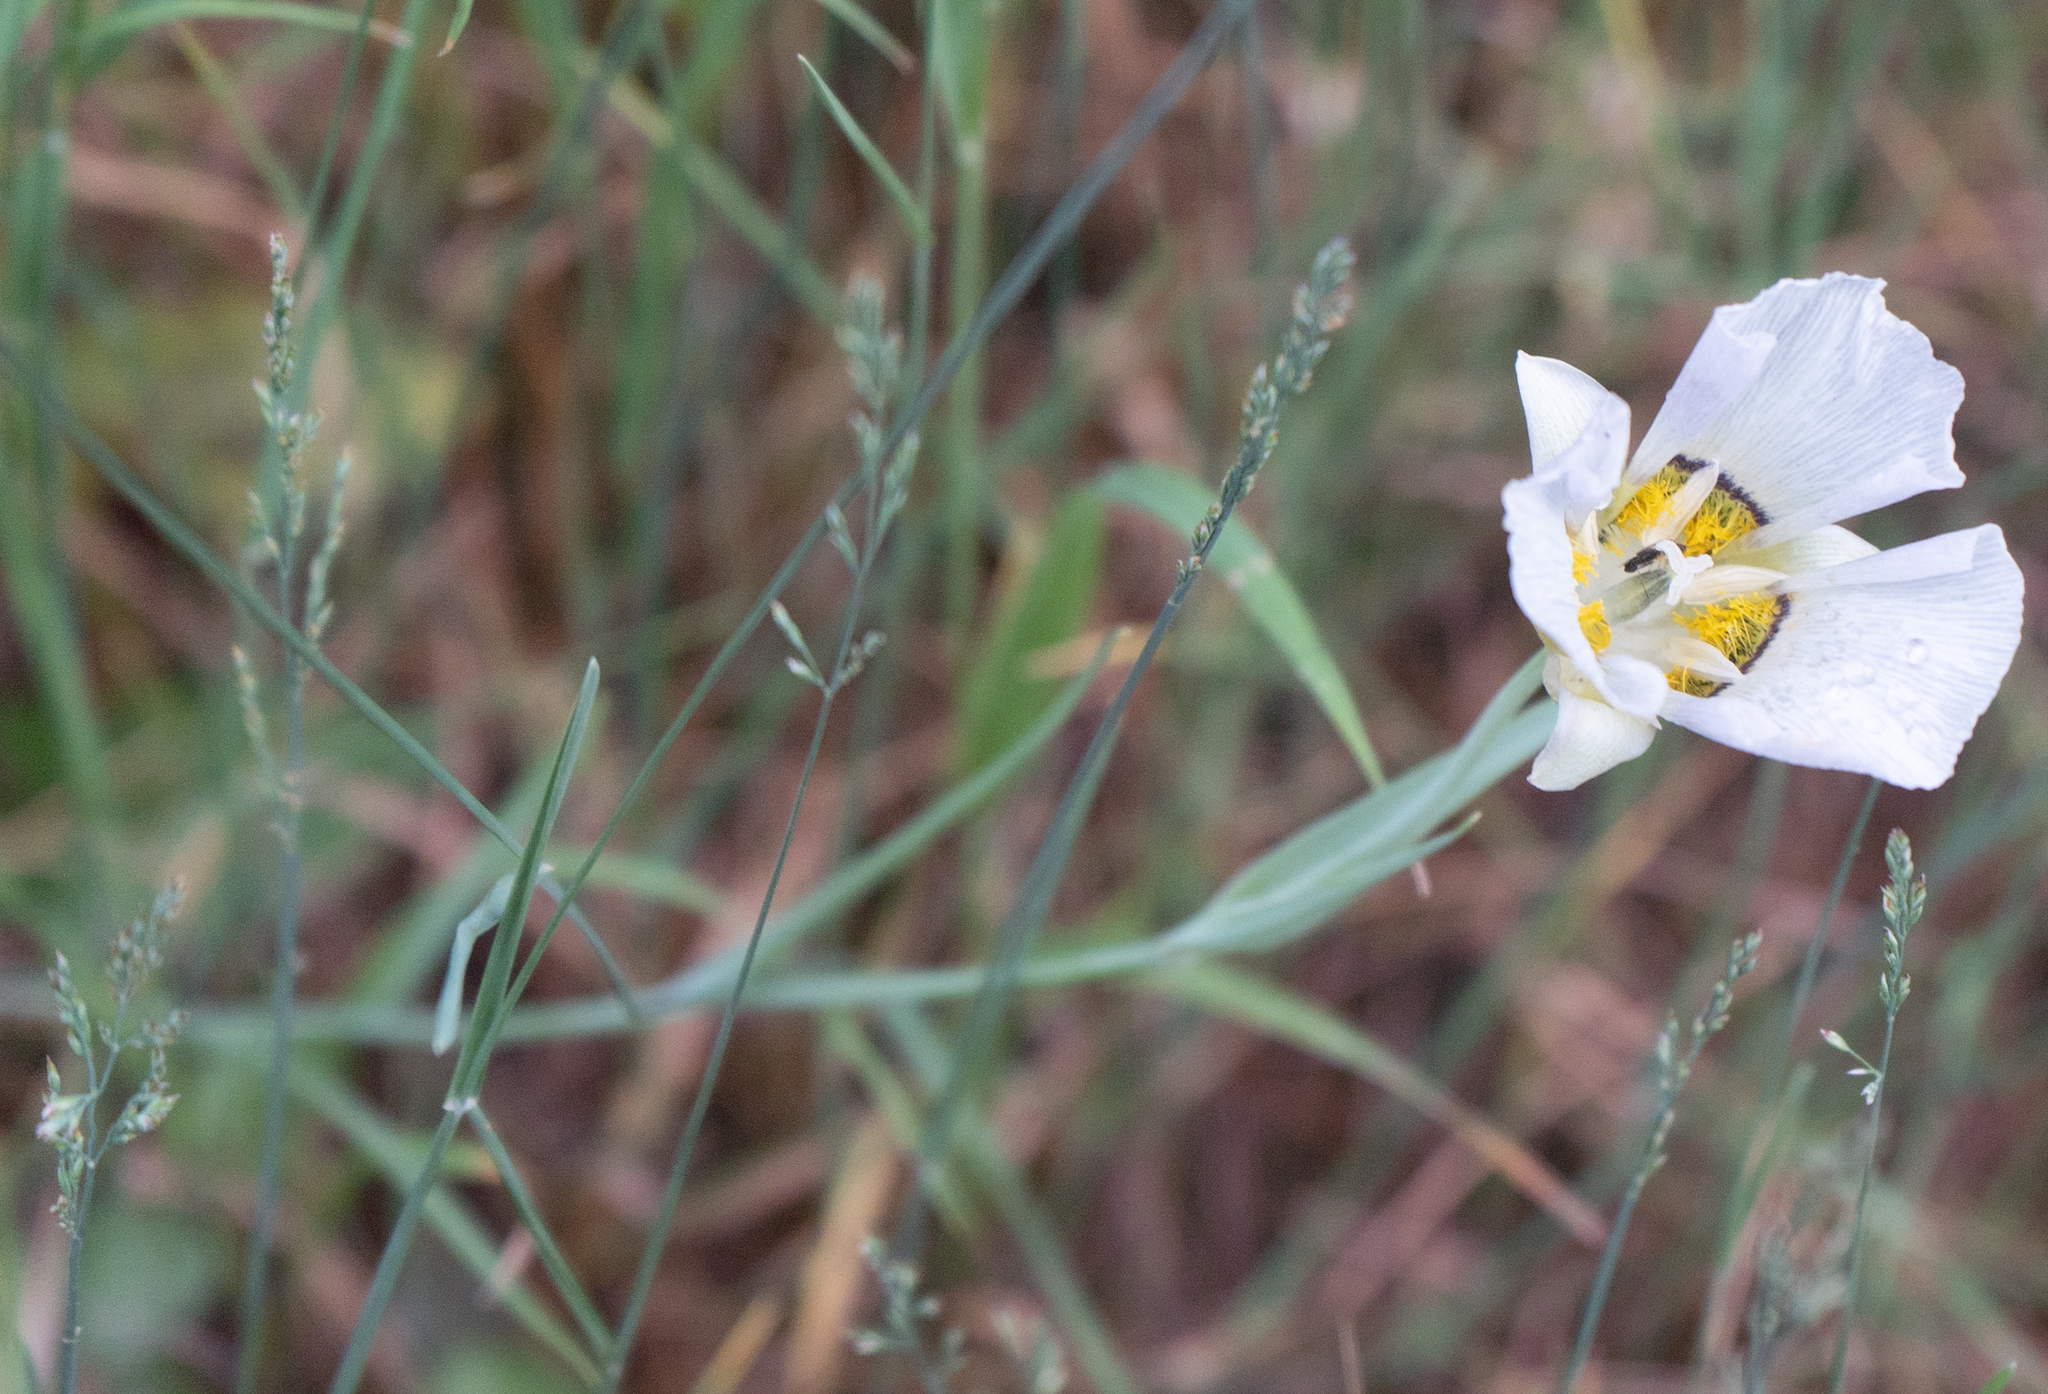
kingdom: Plantae
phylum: Tracheophyta
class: Liliopsida
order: Liliales
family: Liliaceae
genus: Calochortus
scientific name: Calochortus gunnisonii
